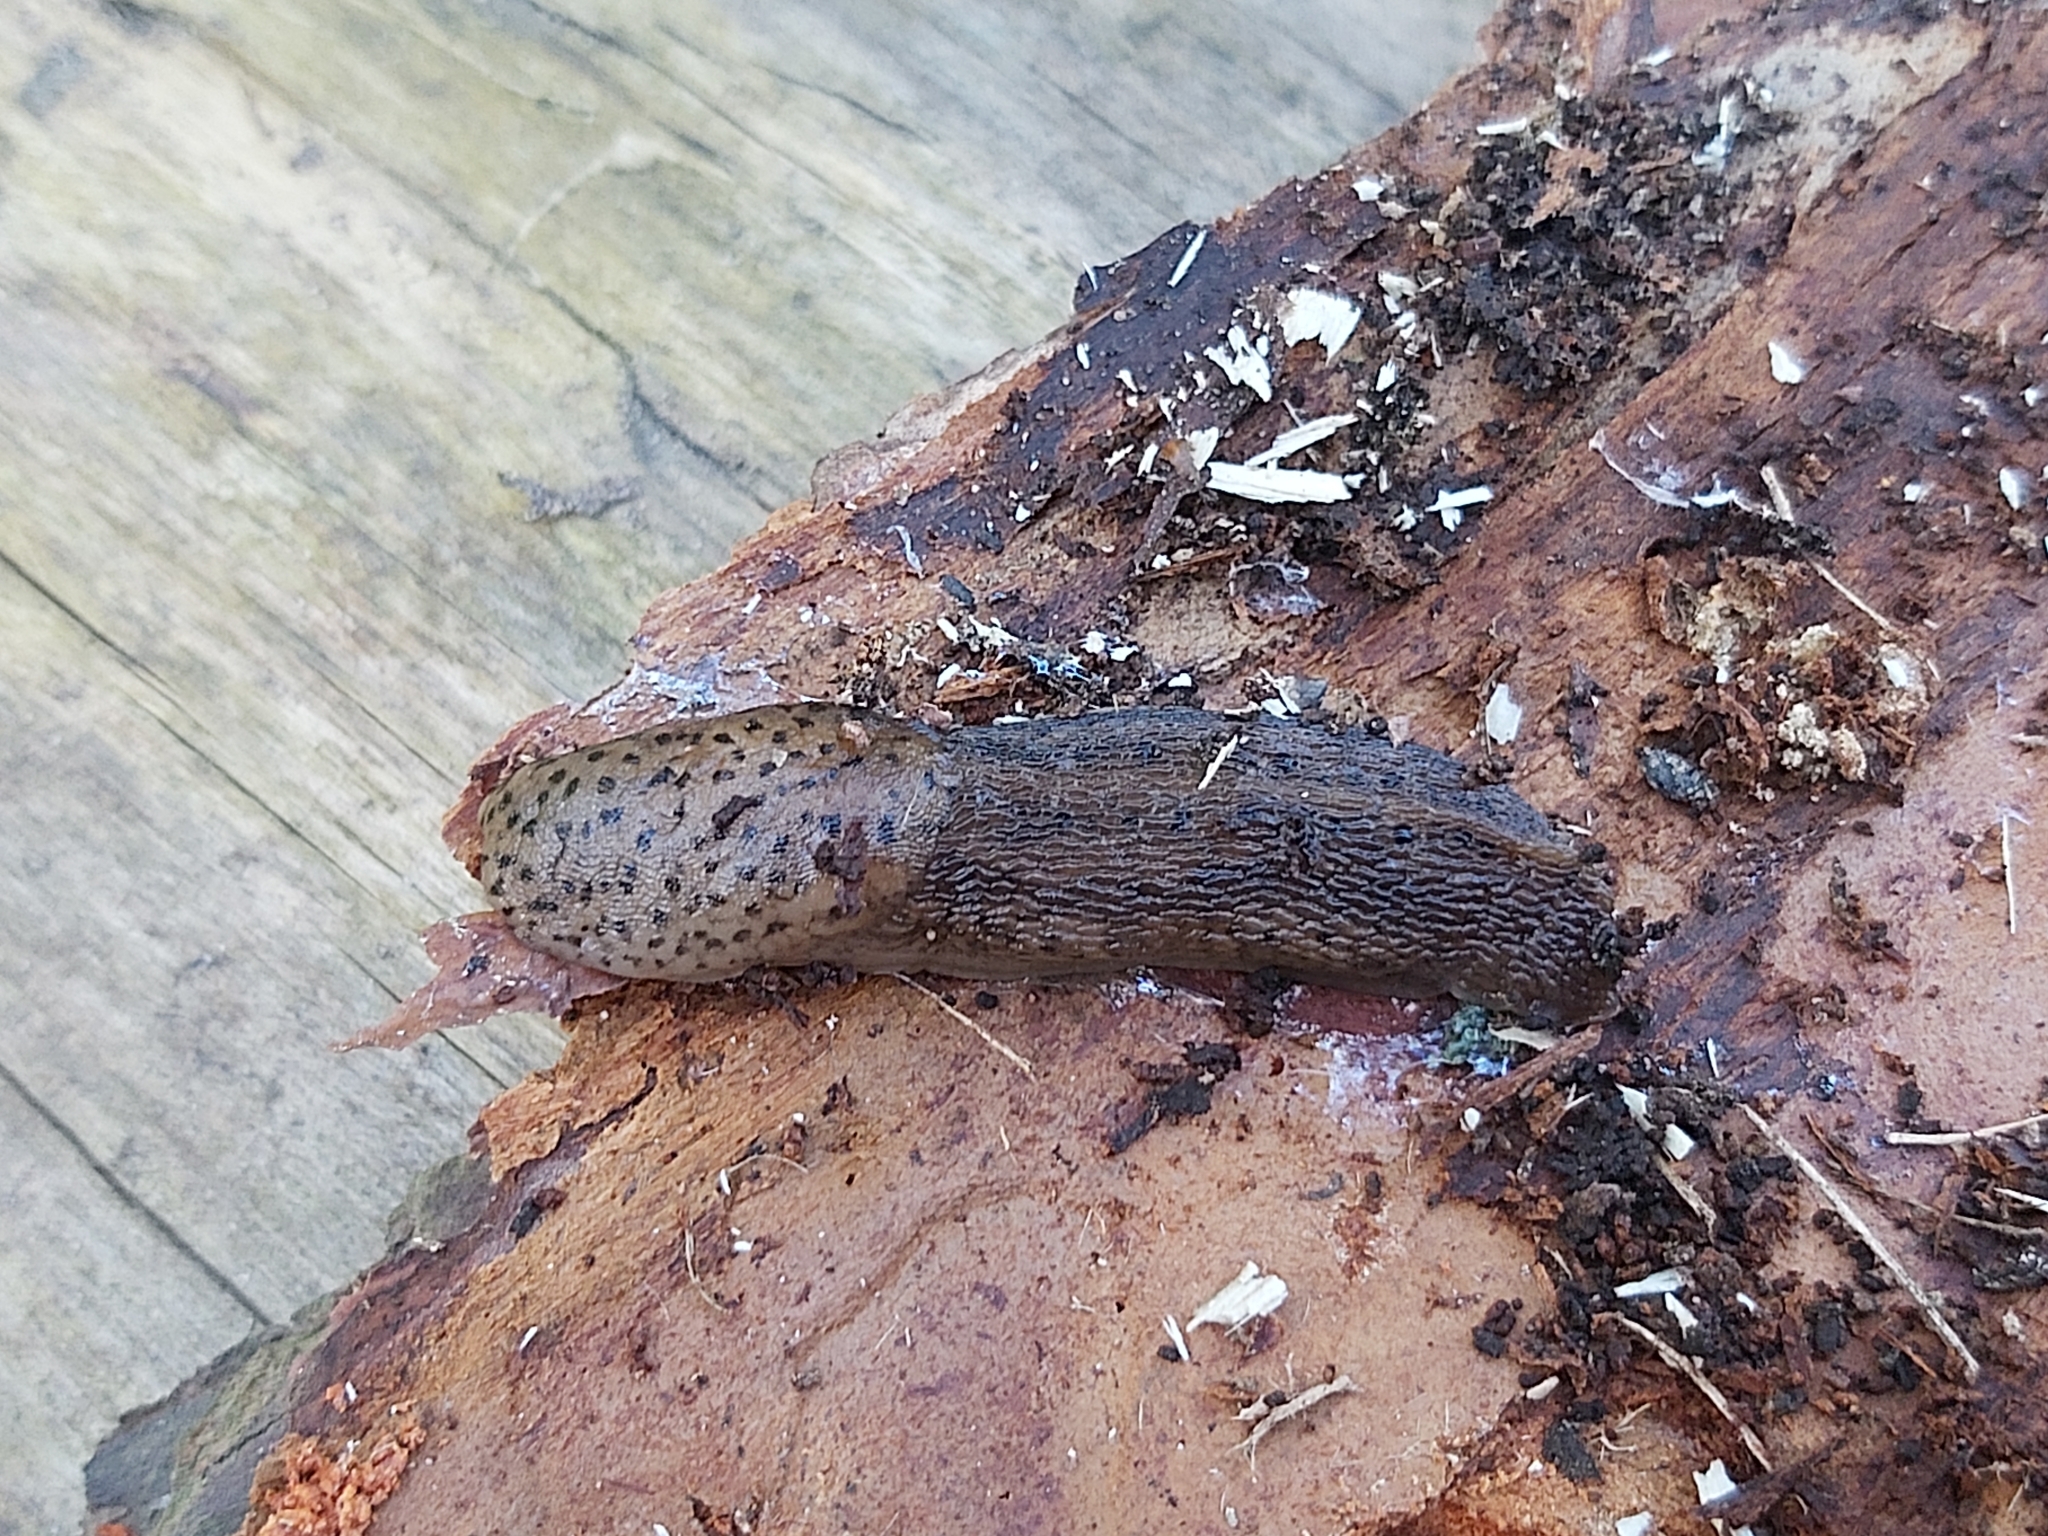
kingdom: Animalia
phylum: Mollusca
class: Gastropoda
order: Stylommatophora
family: Limacidae
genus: Limax
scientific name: Limax maximus
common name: Great grey slug
